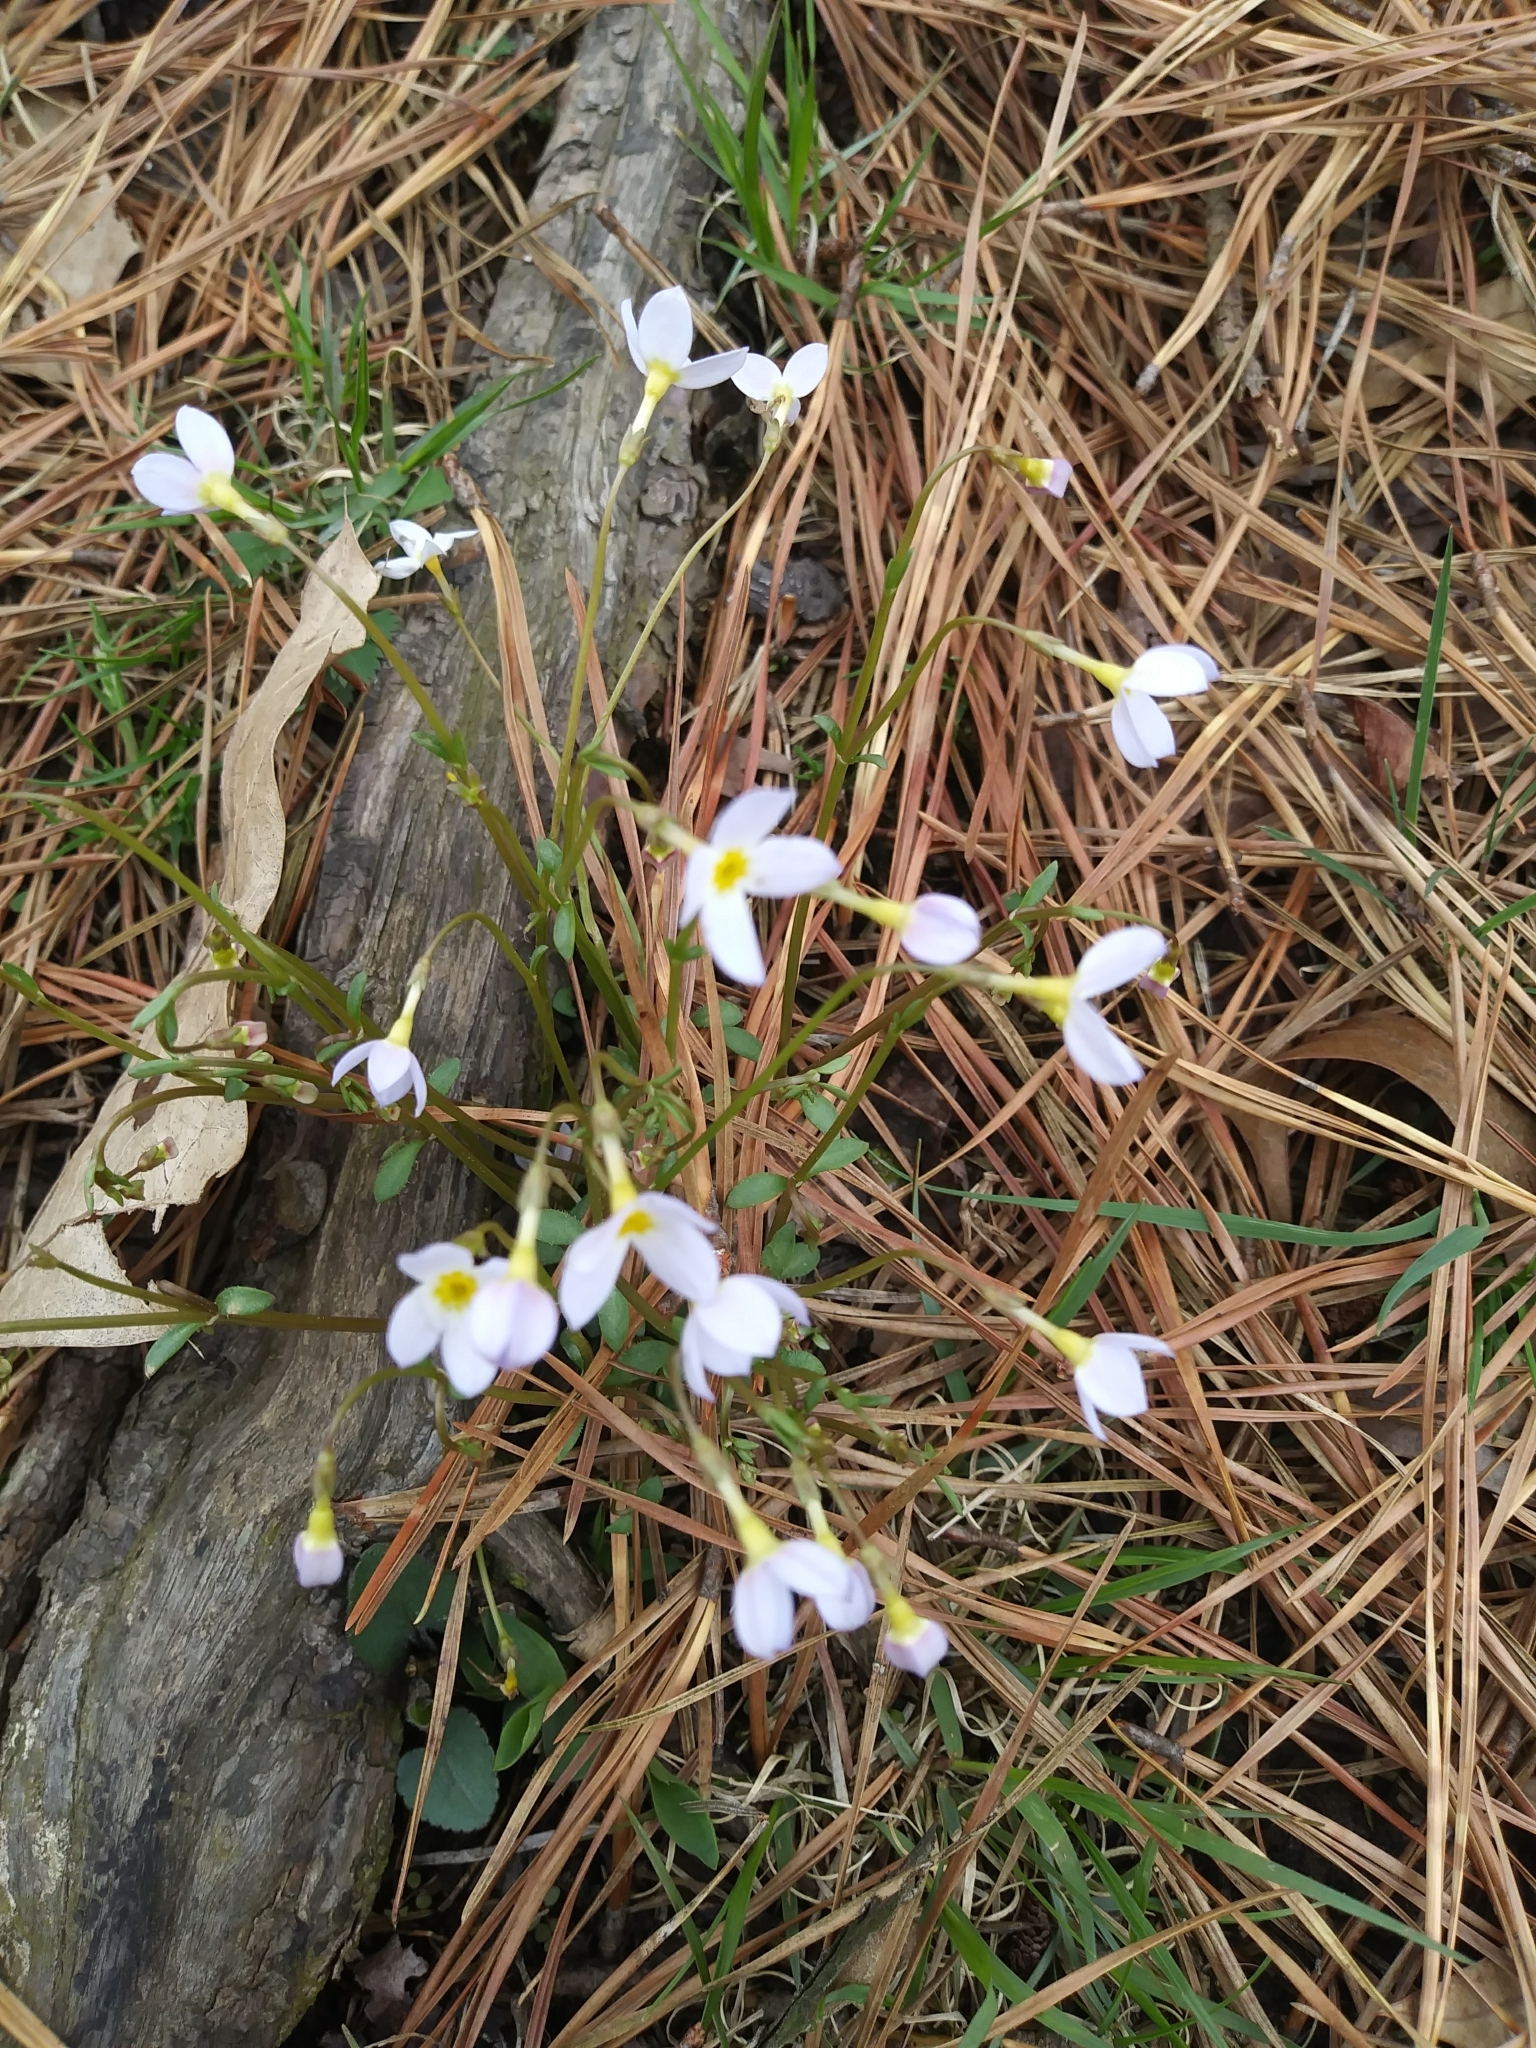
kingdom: Plantae
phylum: Tracheophyta
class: Magnoliopsida
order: Gentianales
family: Rubiaceae
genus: Houstonia
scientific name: Houstonia caerulea
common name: Bluets
